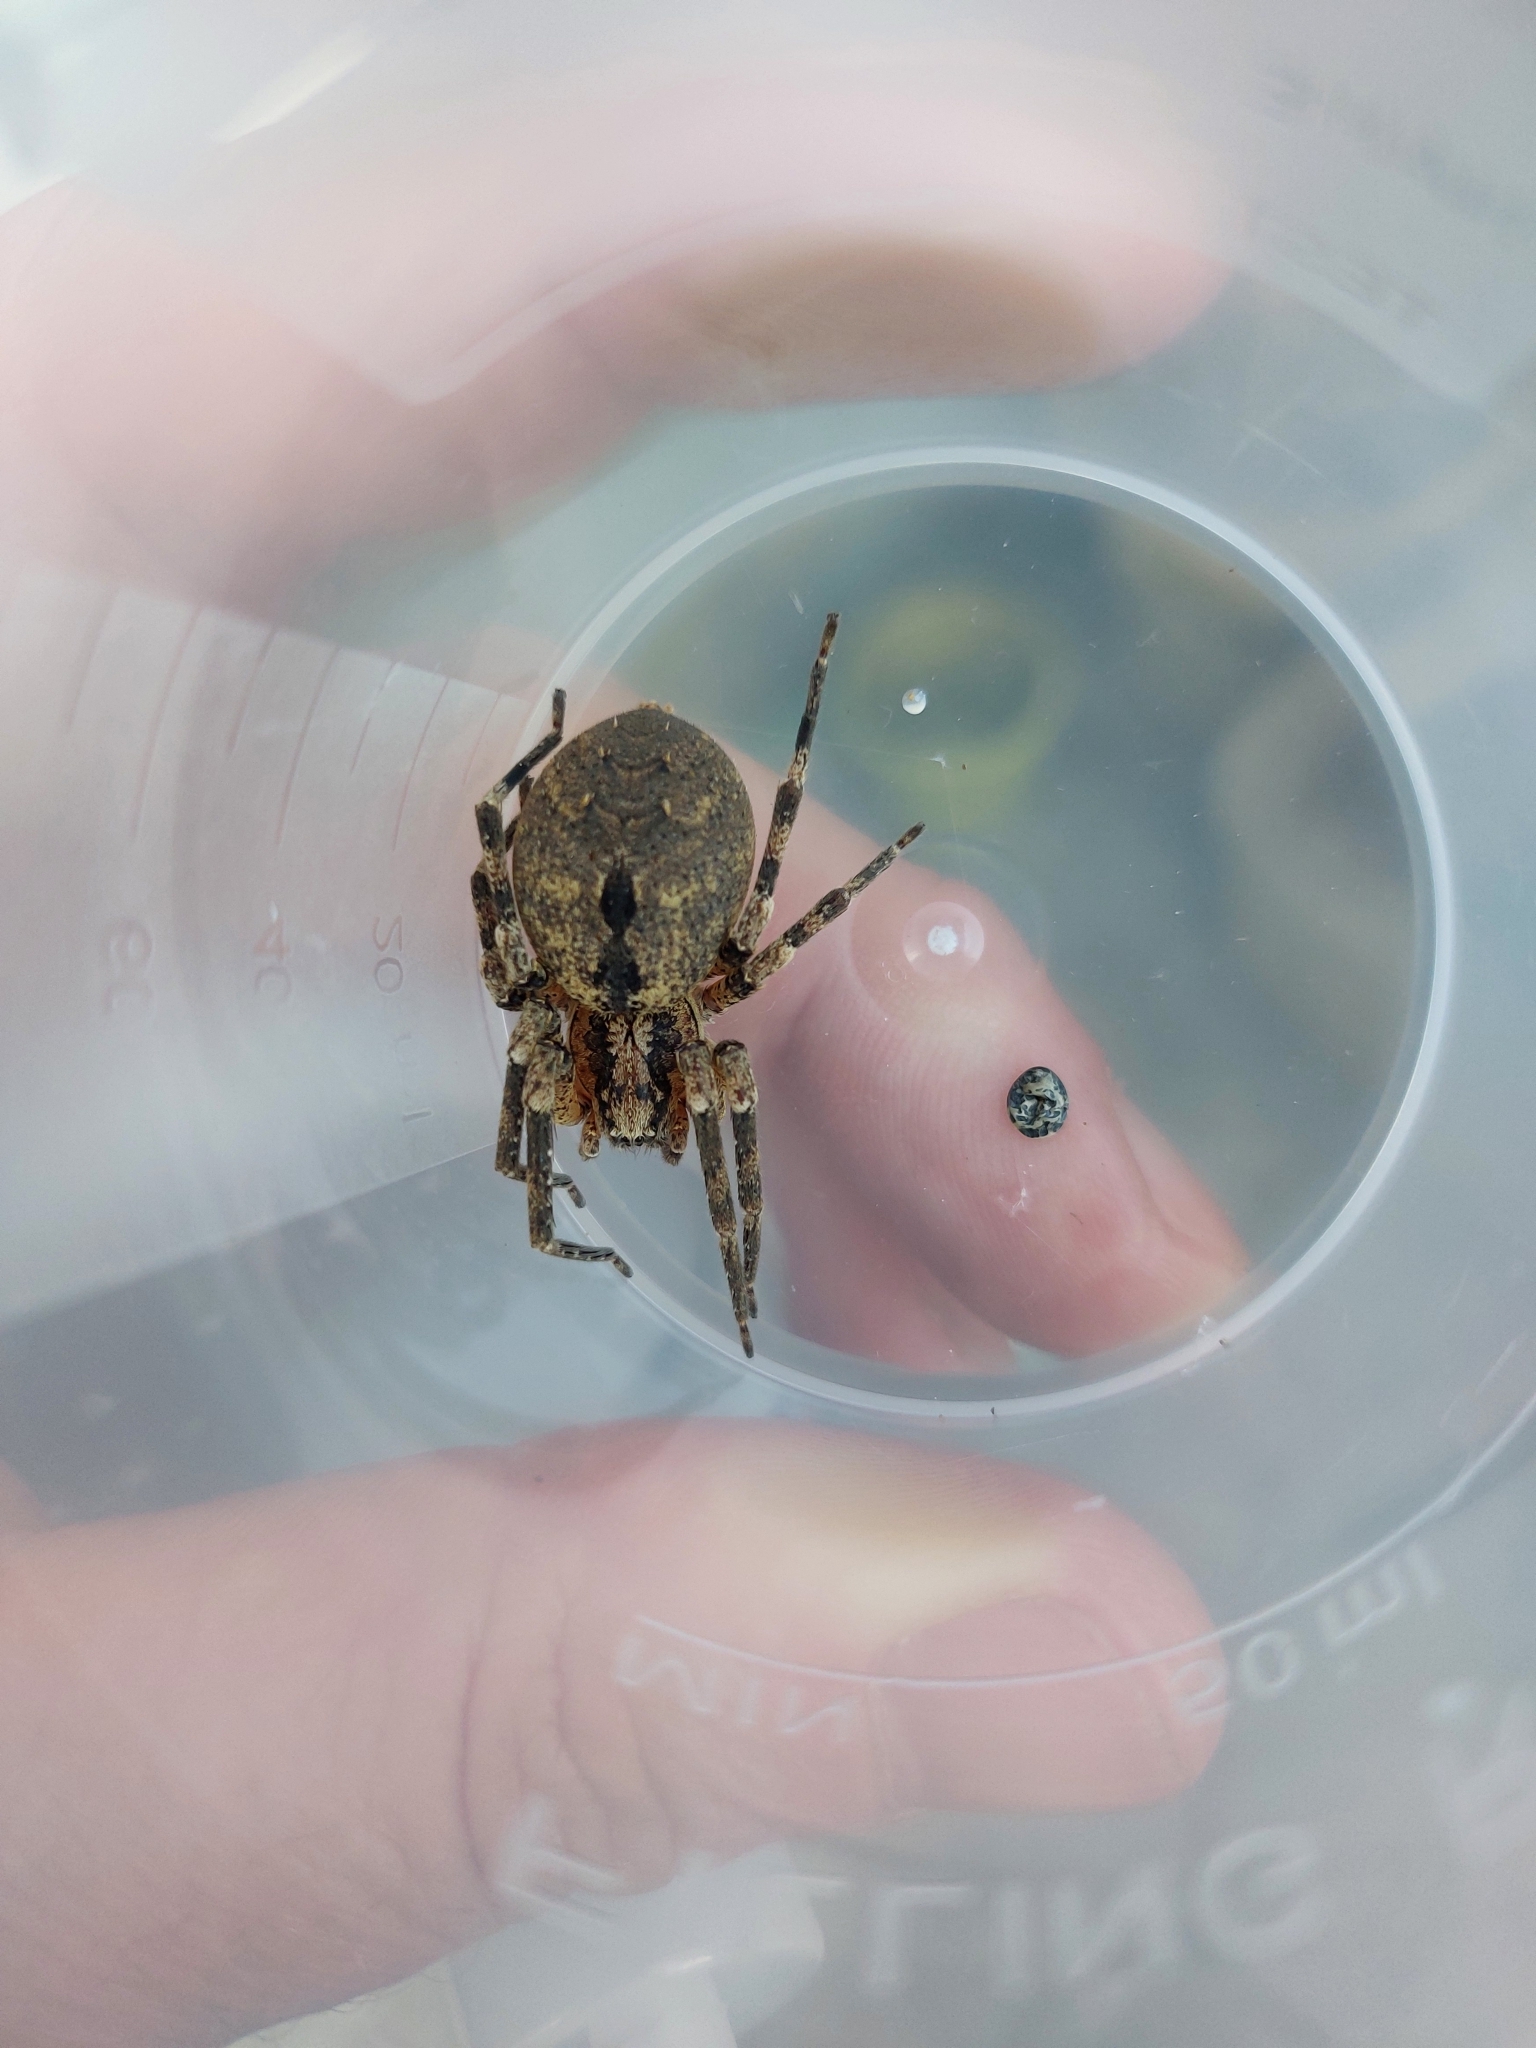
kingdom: Animalia
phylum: Arthropoda
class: Arachnida
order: Araneae
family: Zoropsidae
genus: Zoropsis
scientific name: Zoropsis spinimana
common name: Zoropsid spider
